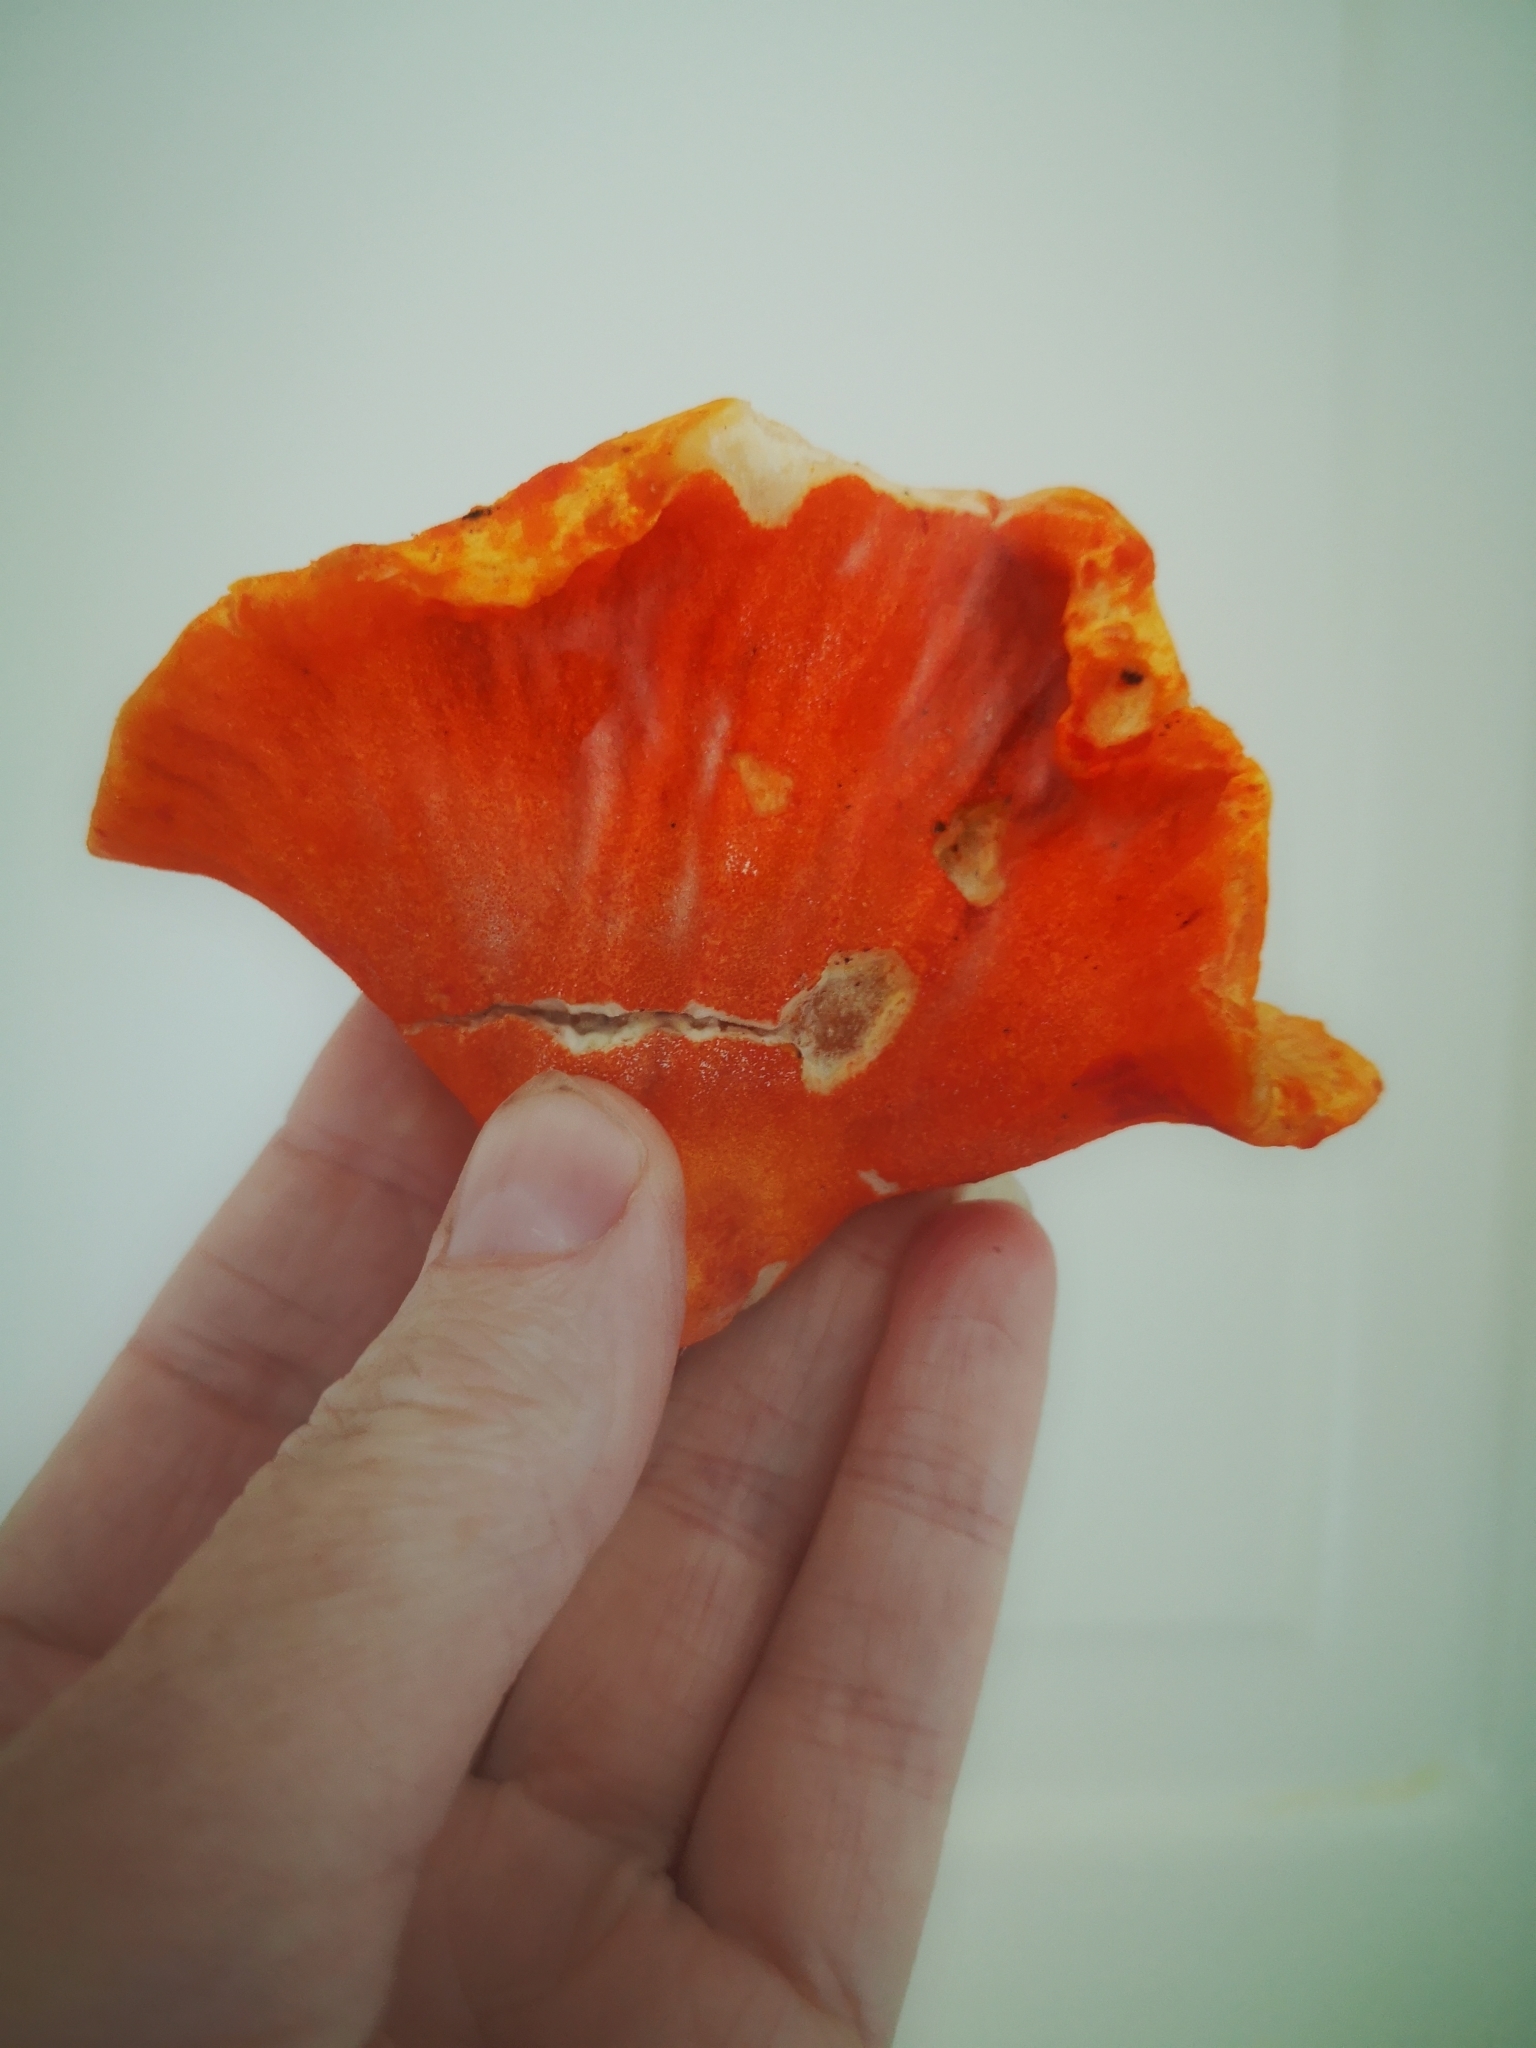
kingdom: Fungi
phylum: Ascomycota
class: Sordariomycetes
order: Hypocreales
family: Hypocreaceae
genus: Hypomyces
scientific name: Hypomyces lactifluorum
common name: Lobster mushroom
